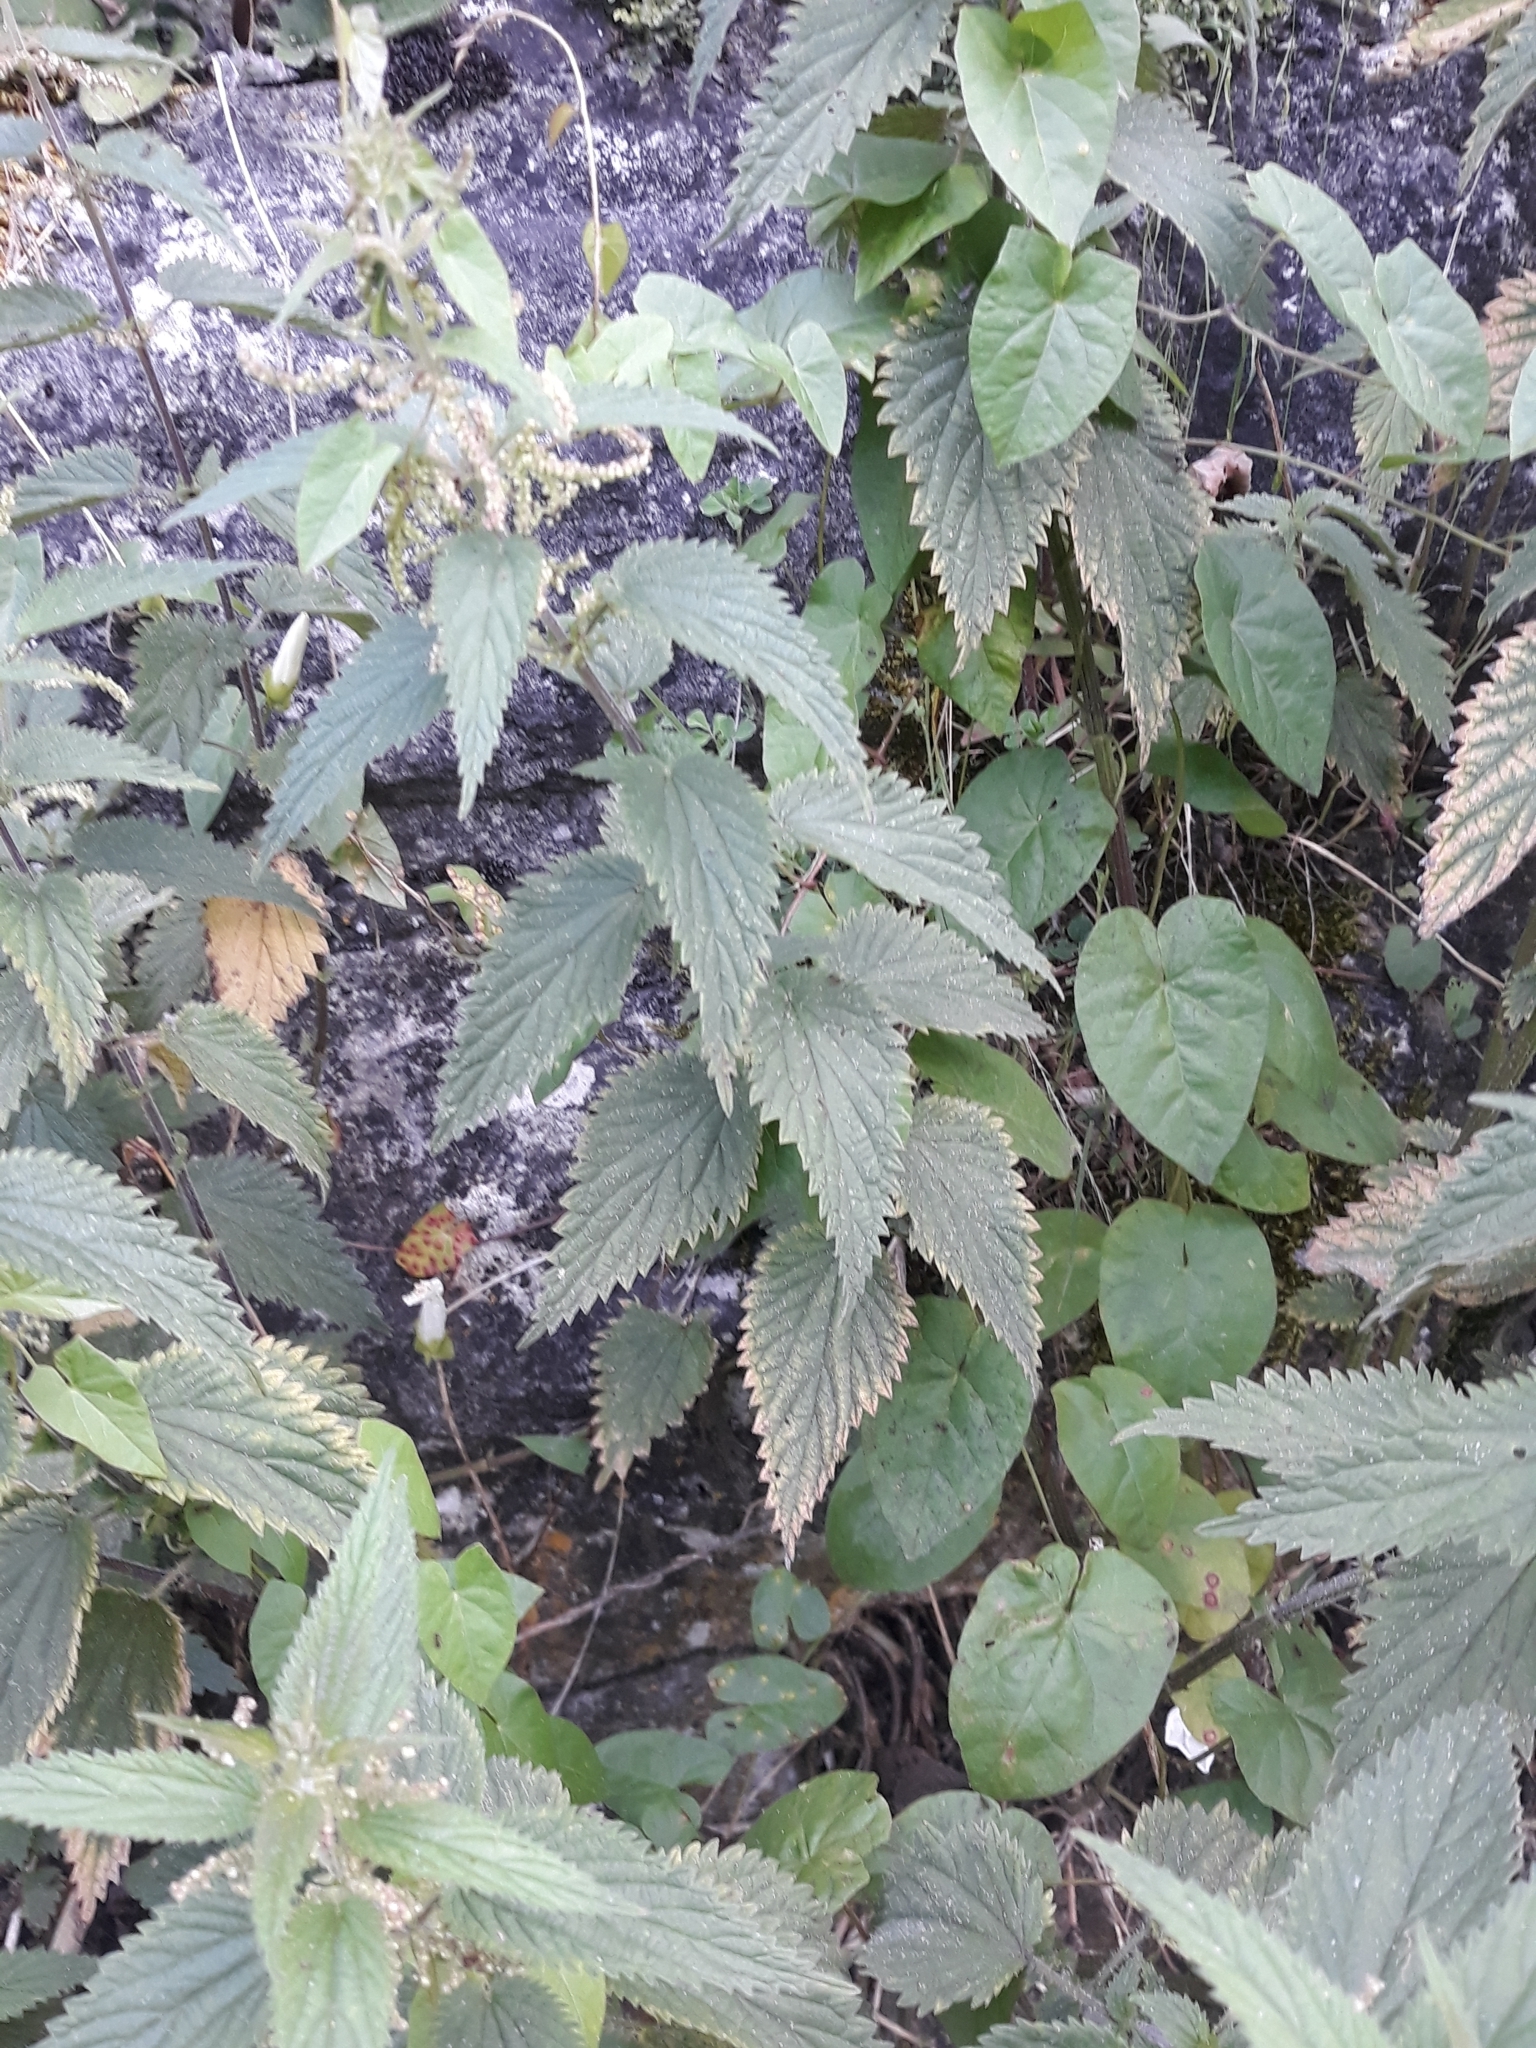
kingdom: Plantae
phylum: Tracheophyta
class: Magnoliopsida
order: Rosales
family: Urticaceae
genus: Urtica
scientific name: Urtica dioica
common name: Common nettle
